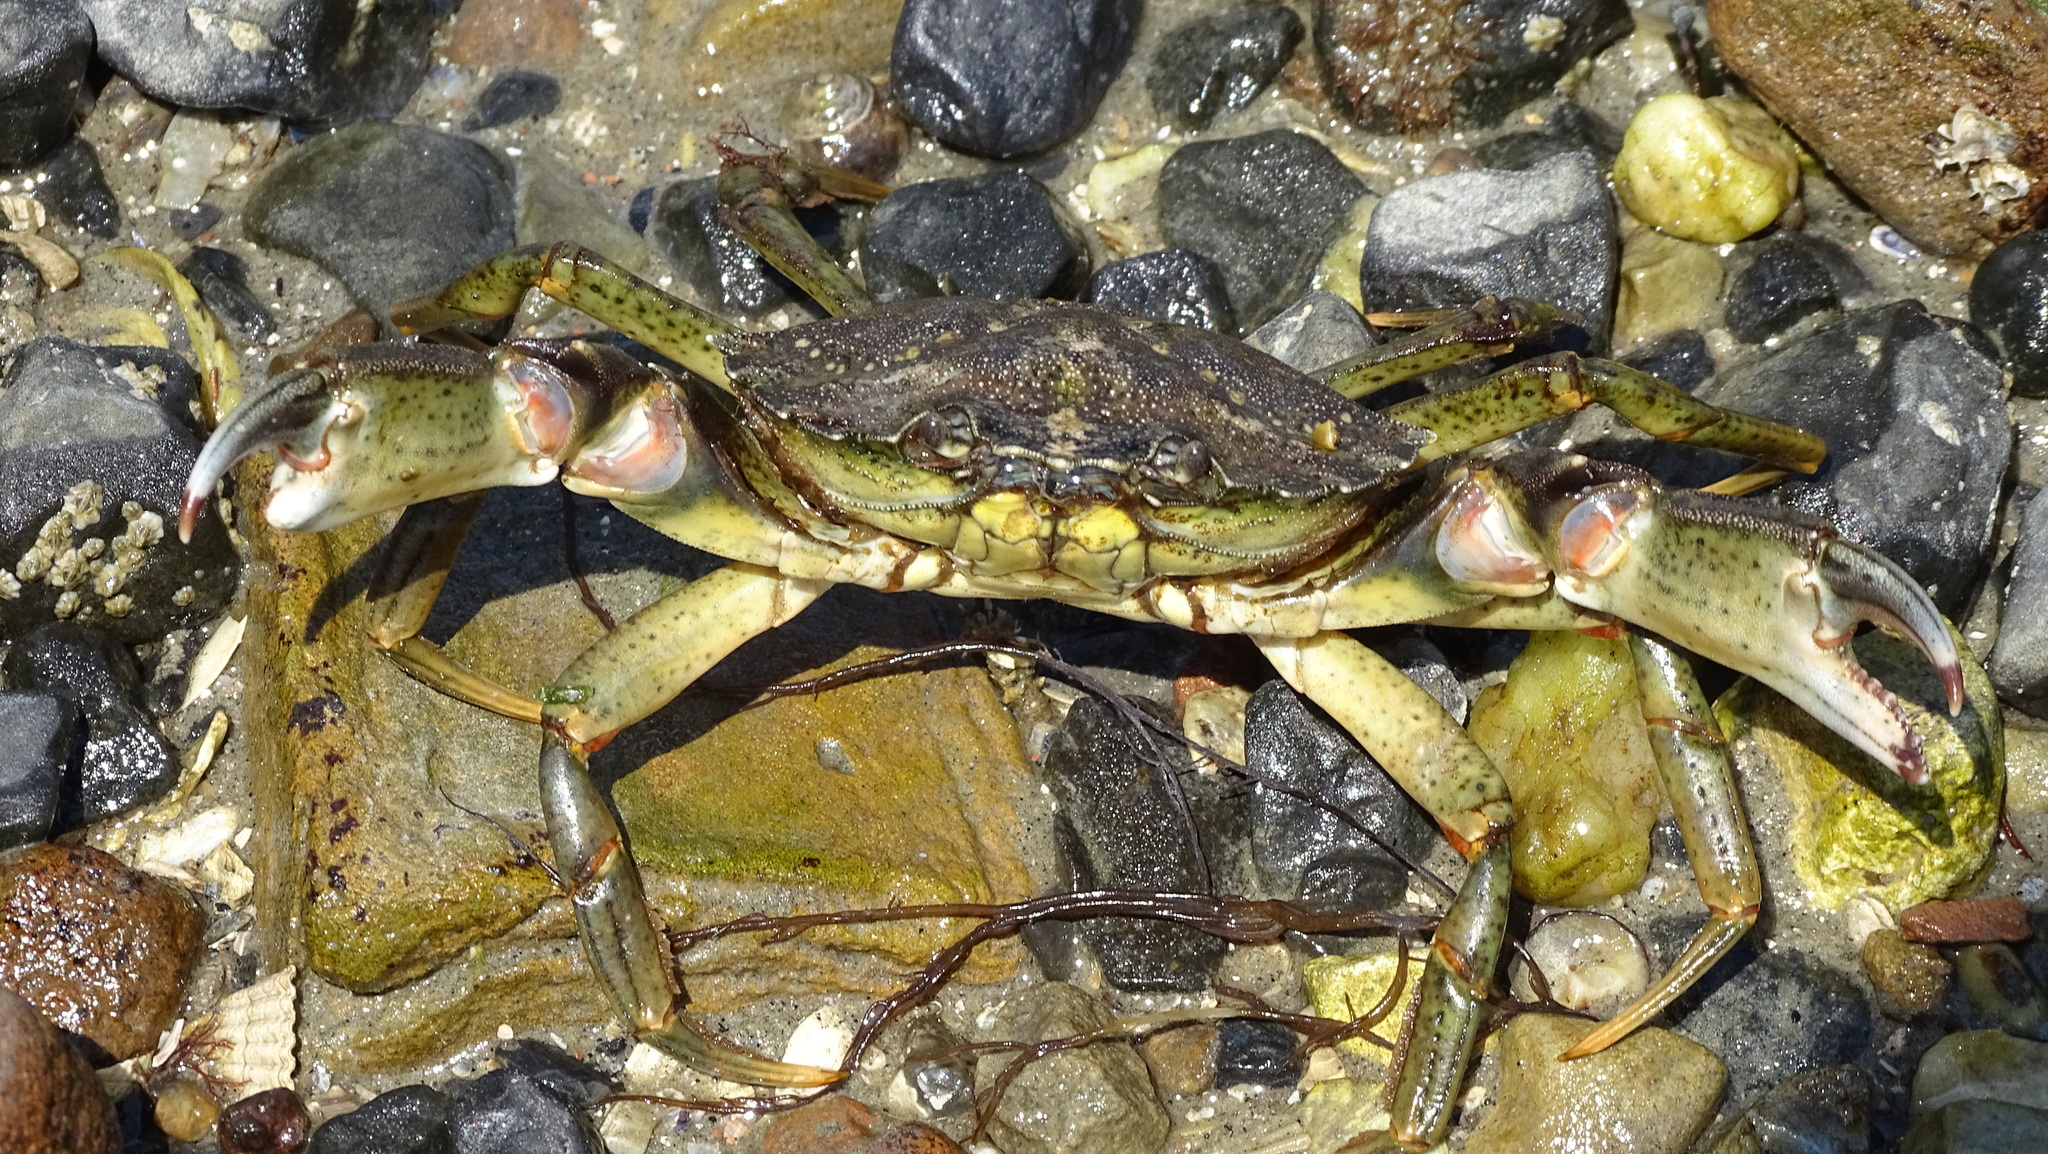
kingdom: Animalia
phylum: Arthropoda
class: Malacostraca
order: Decapoda
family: Carcinidae
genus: Carcinus
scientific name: Carcinus maenas
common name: European green crab
